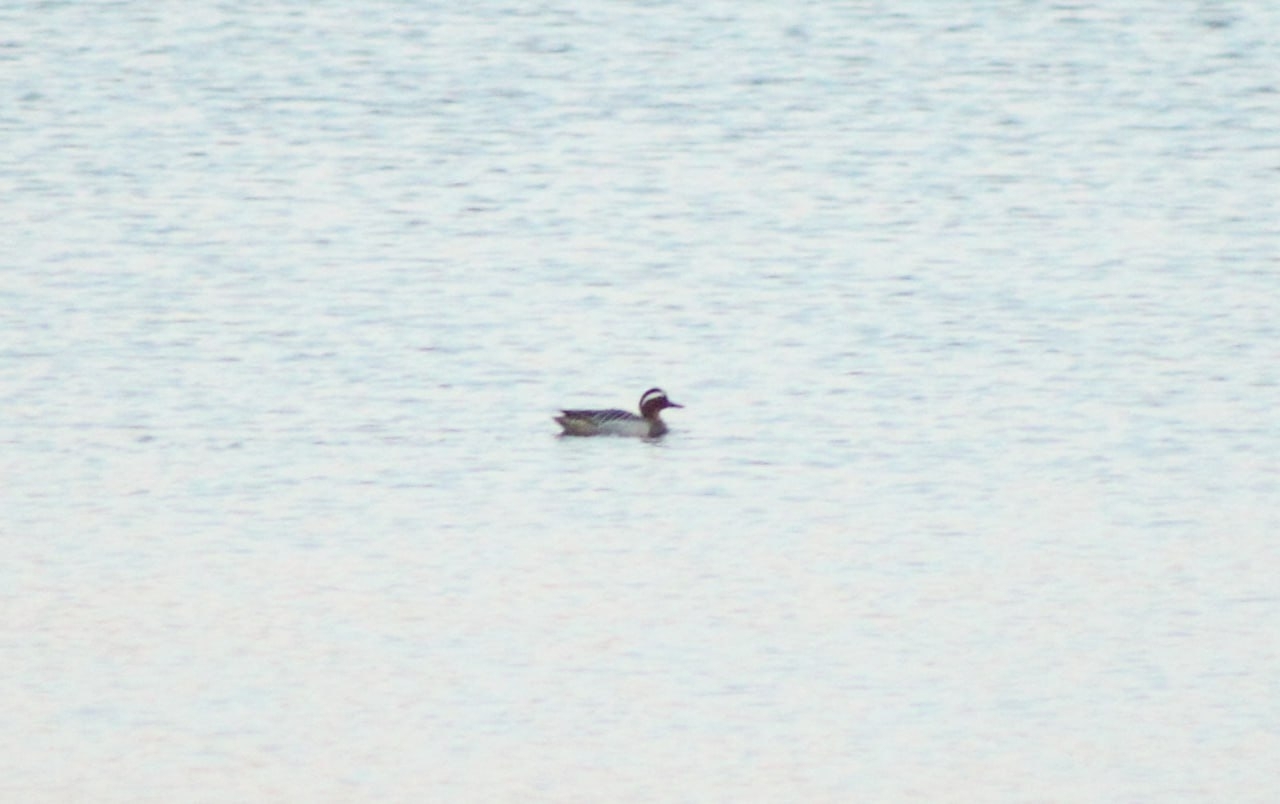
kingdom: Animalia
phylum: Chordata
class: Aves
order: Anseriformes
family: Anatidae
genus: Spatula
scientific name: Spatula querquedula
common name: Garganey
